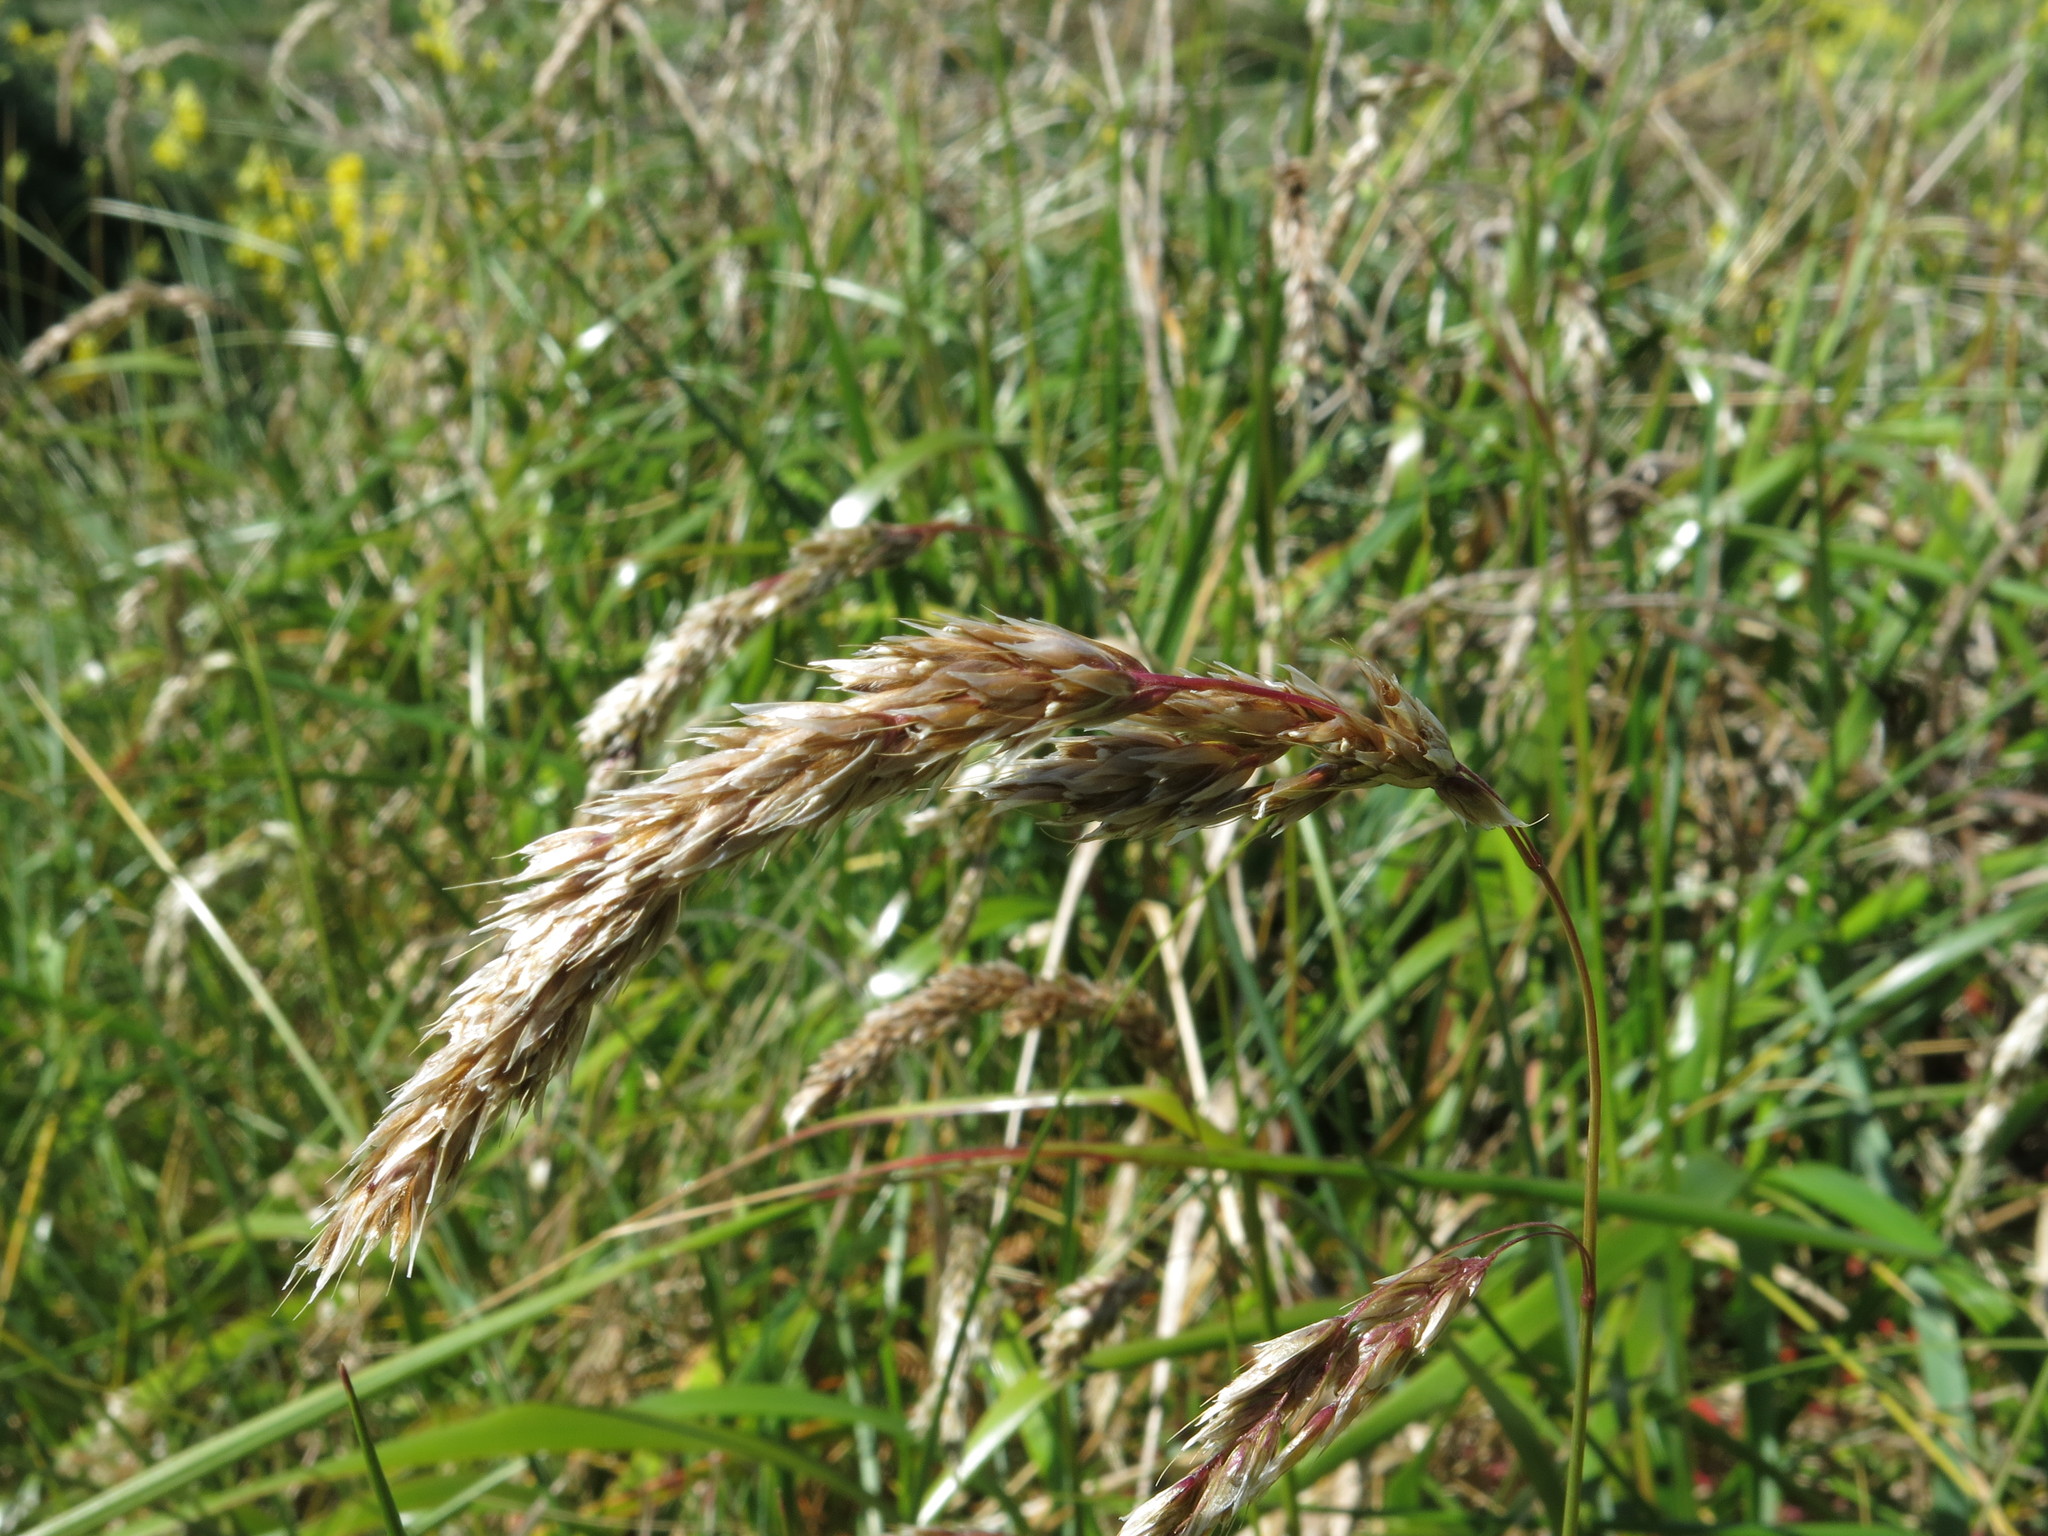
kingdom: Plantae
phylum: Tracheophyta
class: Liliopsida
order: Poales
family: Poaceae
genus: Anthoxanthum
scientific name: Anthoxanthum redolens
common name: Sweet holy grass
